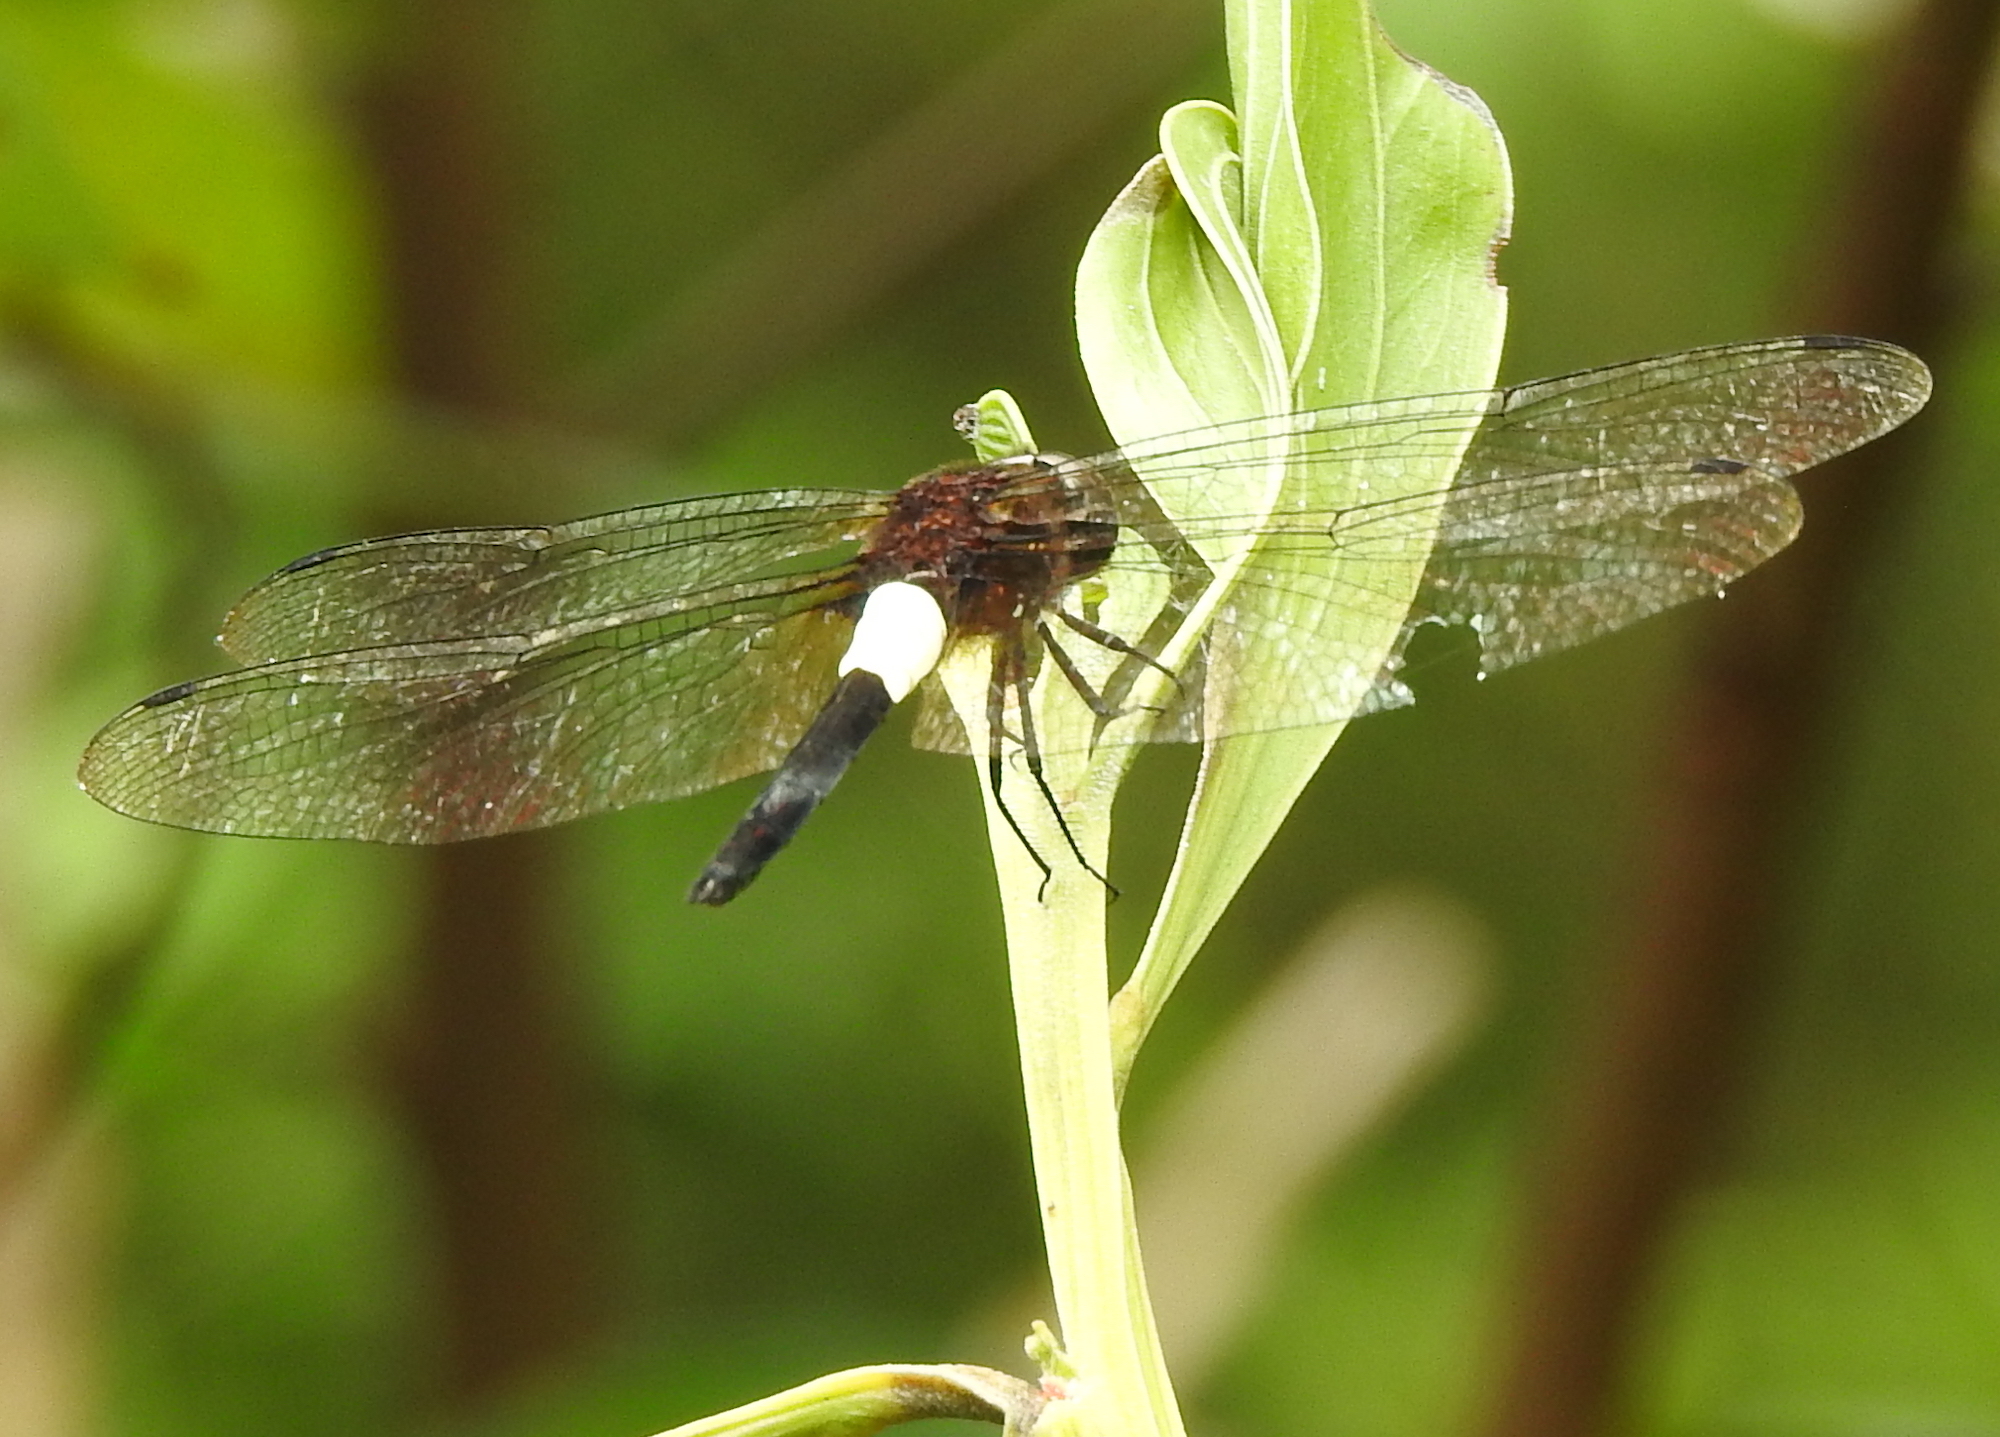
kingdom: Animalia
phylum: Arthropoda
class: Insecta
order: Odonata
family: Libellulidae
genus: Pseudothemis
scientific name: Pseudothemis jorina
